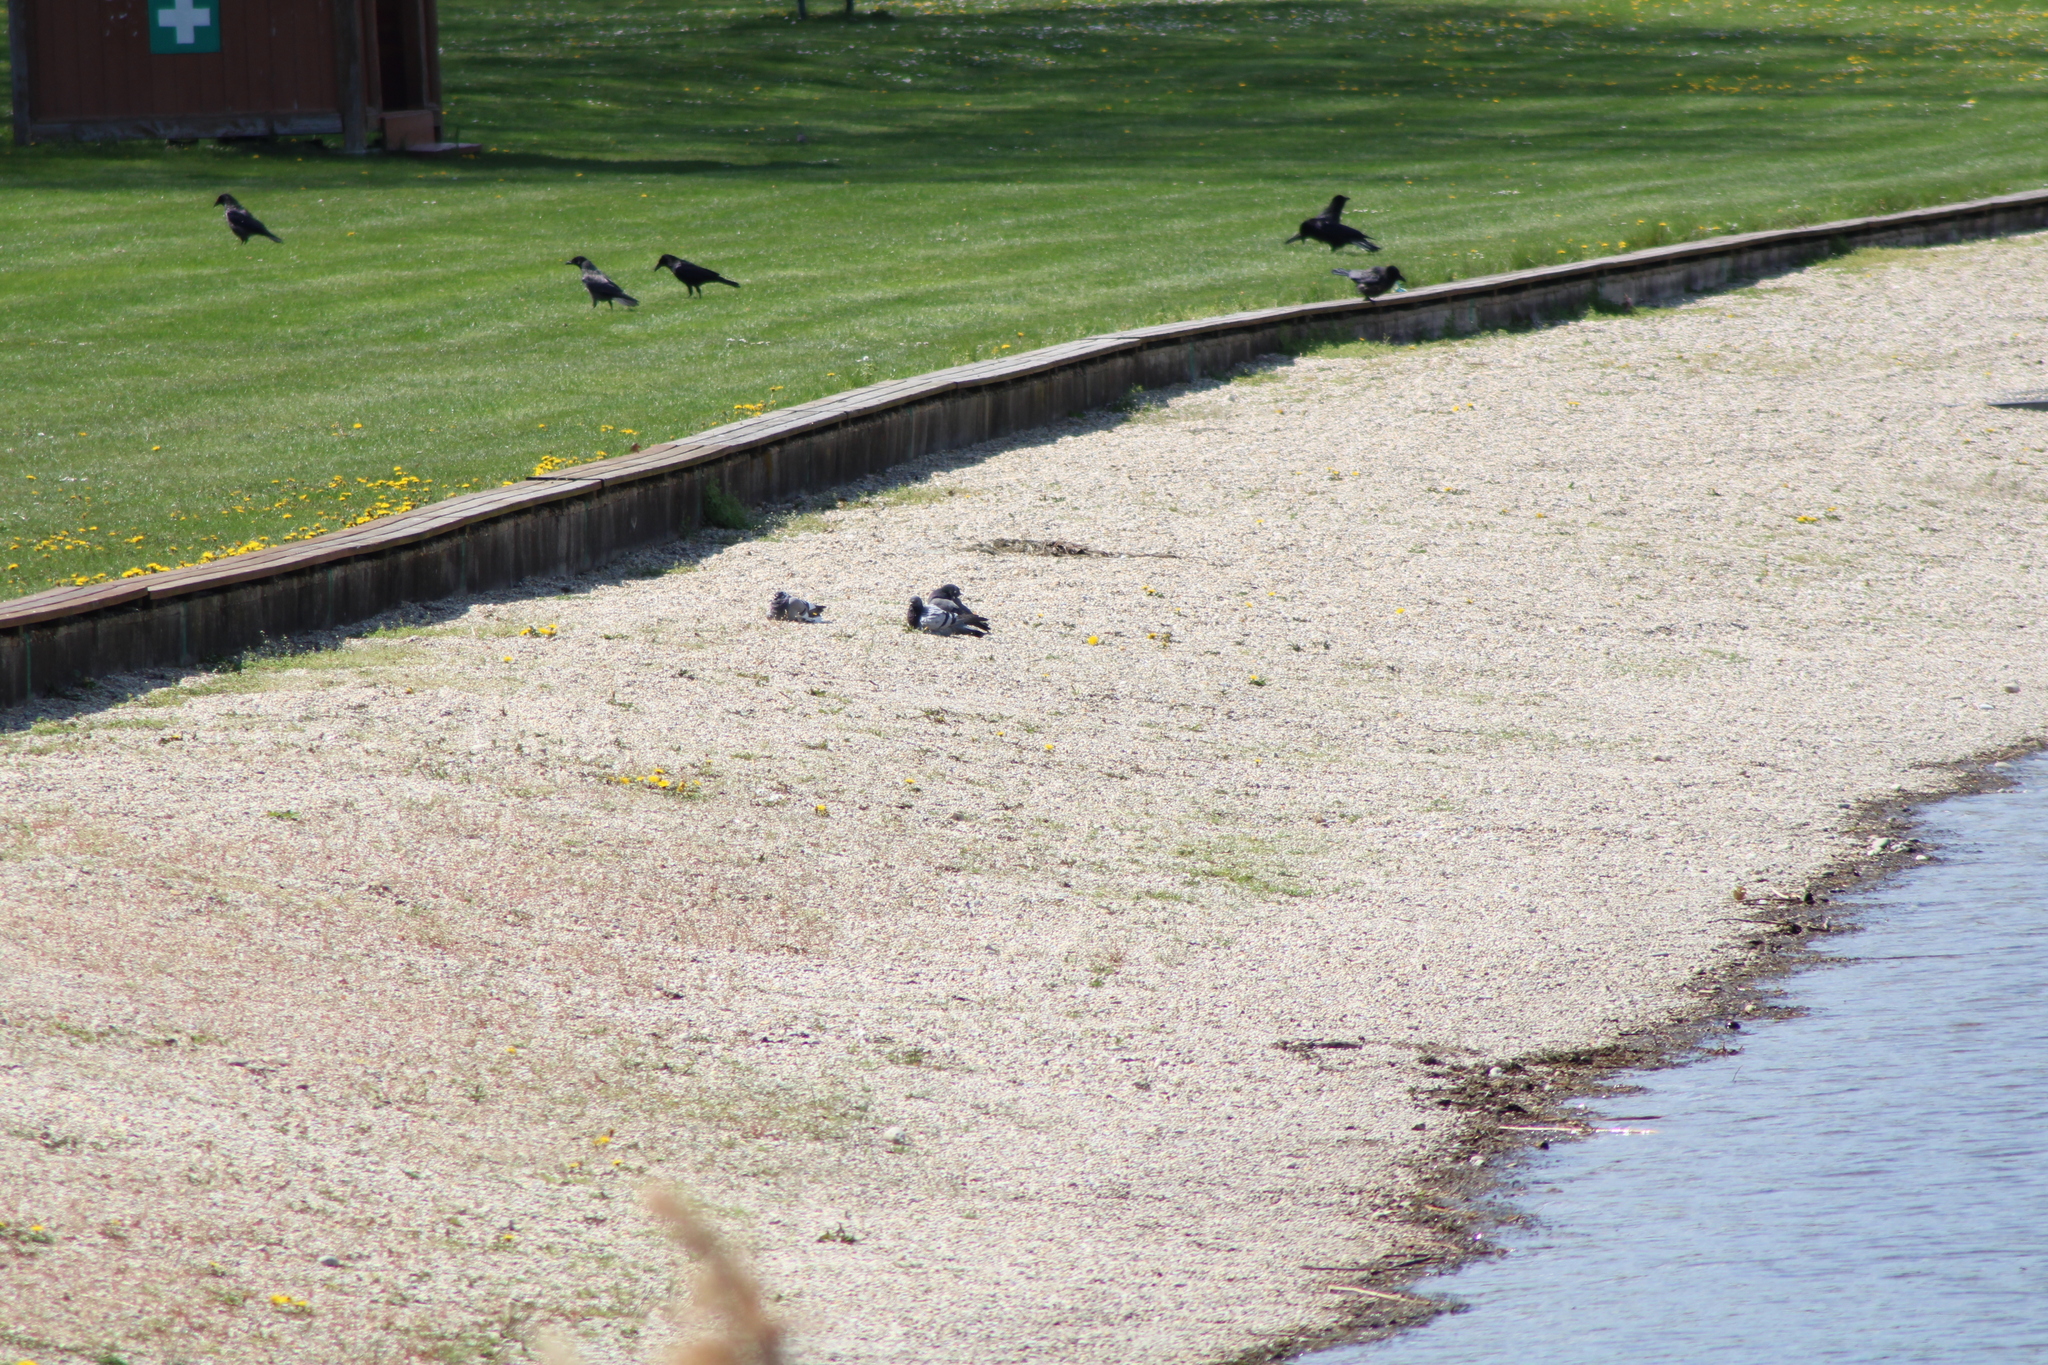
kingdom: Animalia
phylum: Chordata
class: Aves
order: Columbiformes
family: Columbidae
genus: Columba
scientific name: Columba livia
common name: Rock pigeon
